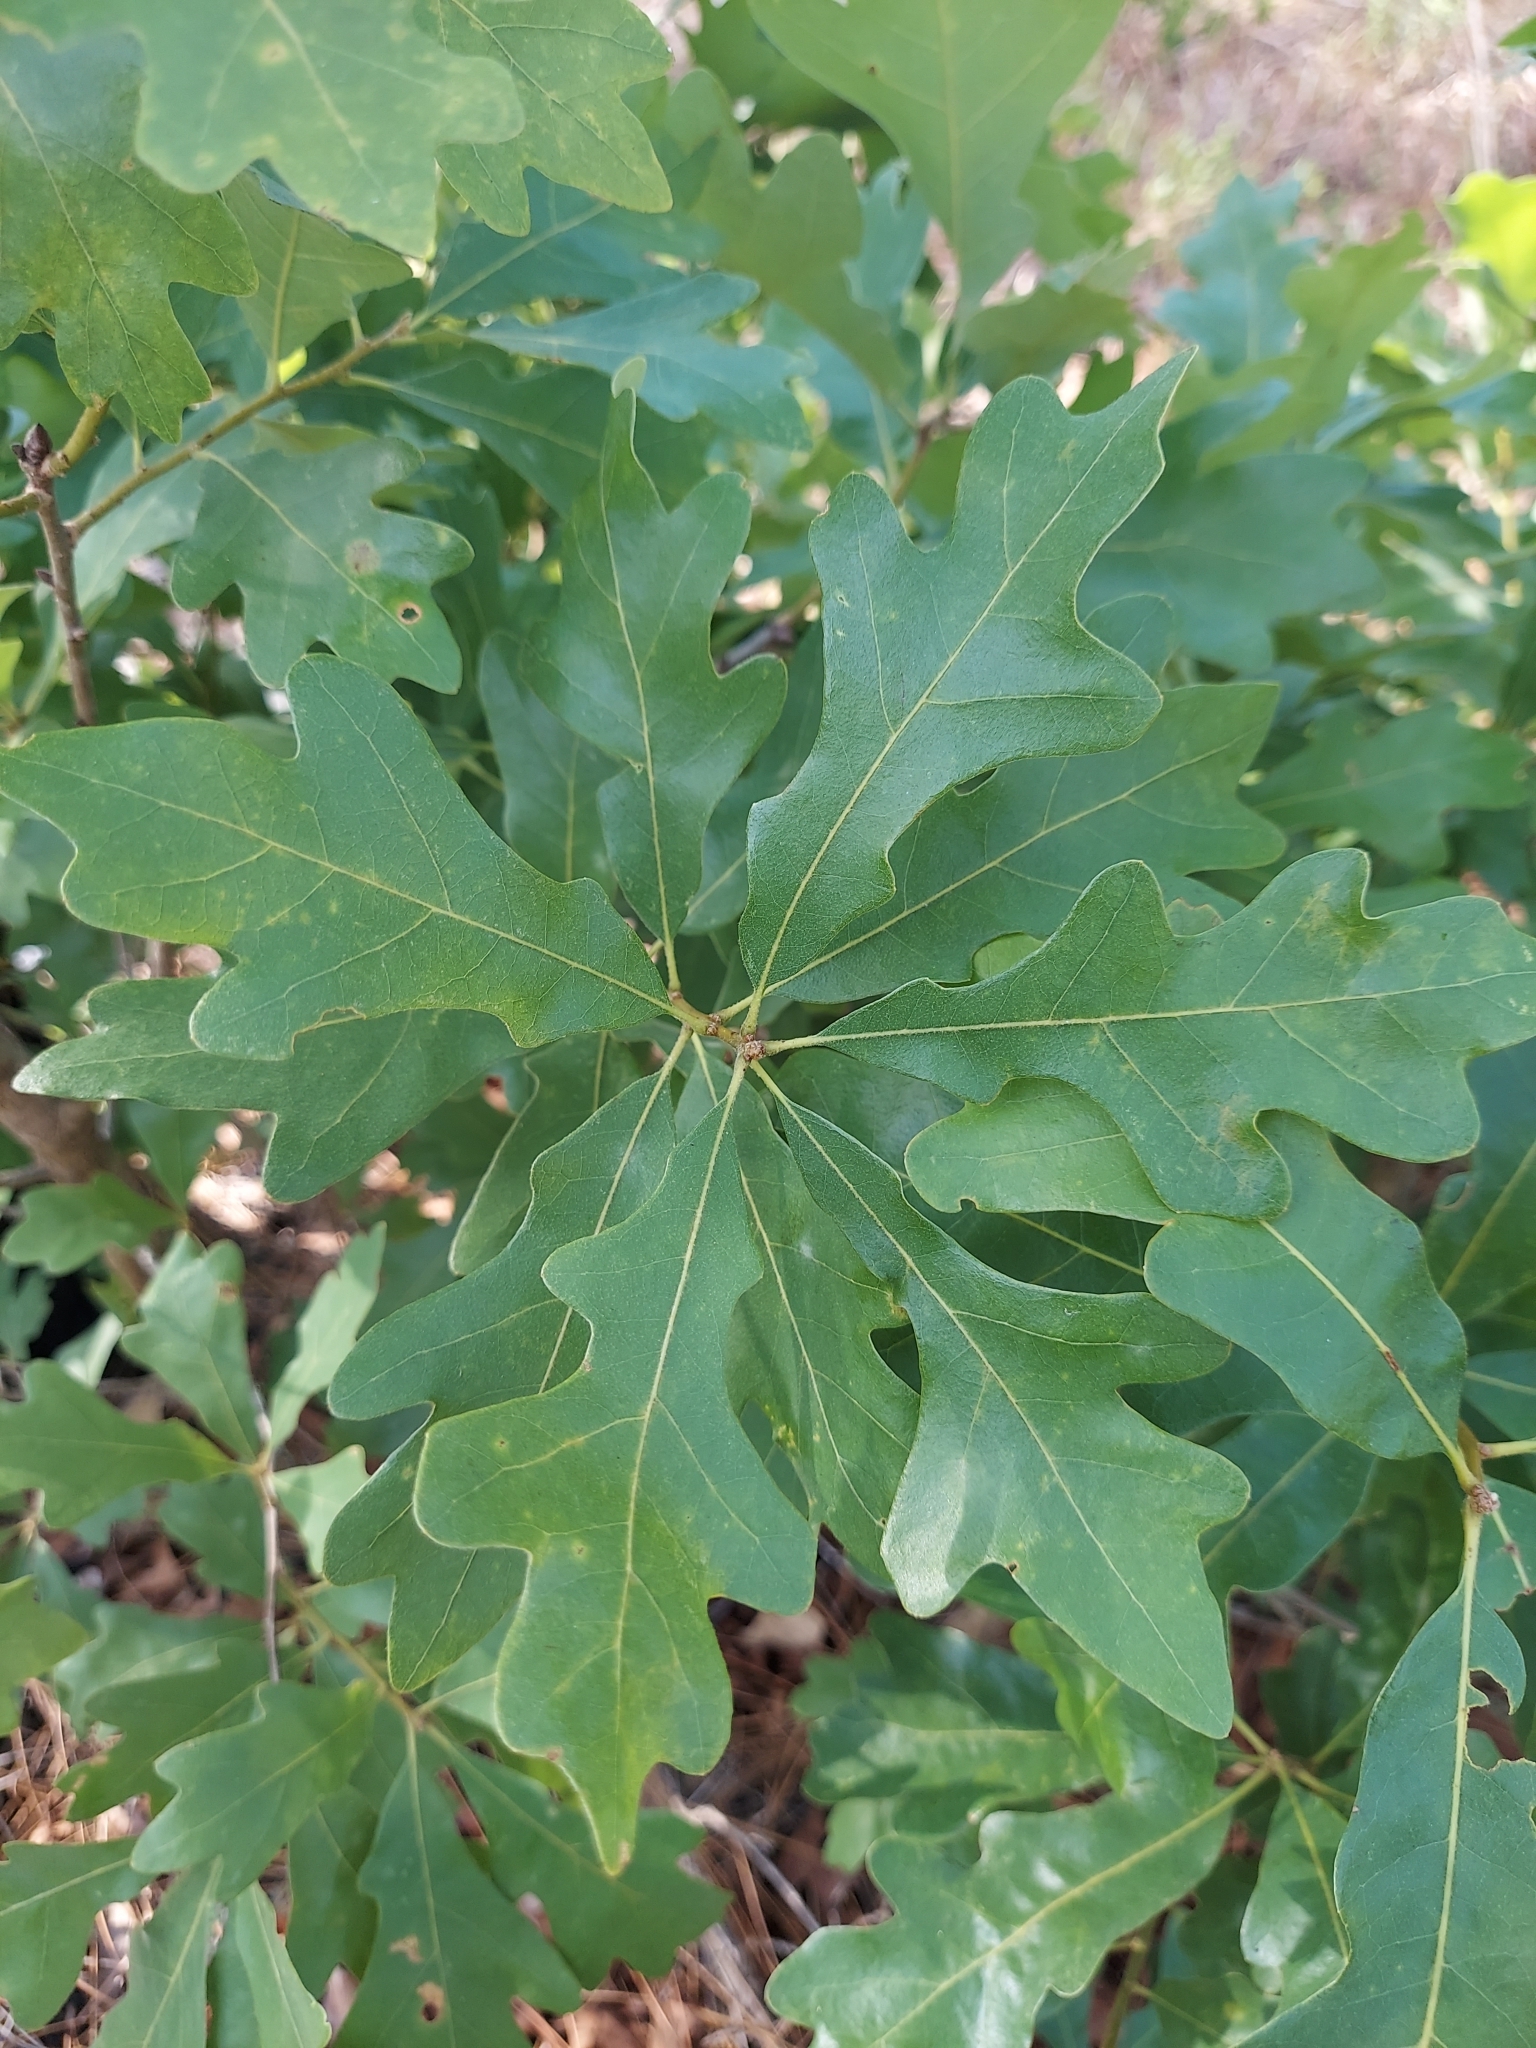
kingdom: Plantae
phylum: Tracheophyta
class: Magnoliopsida
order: Fagales
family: Fagaceae
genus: Quercus
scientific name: Quercus margaretiae
